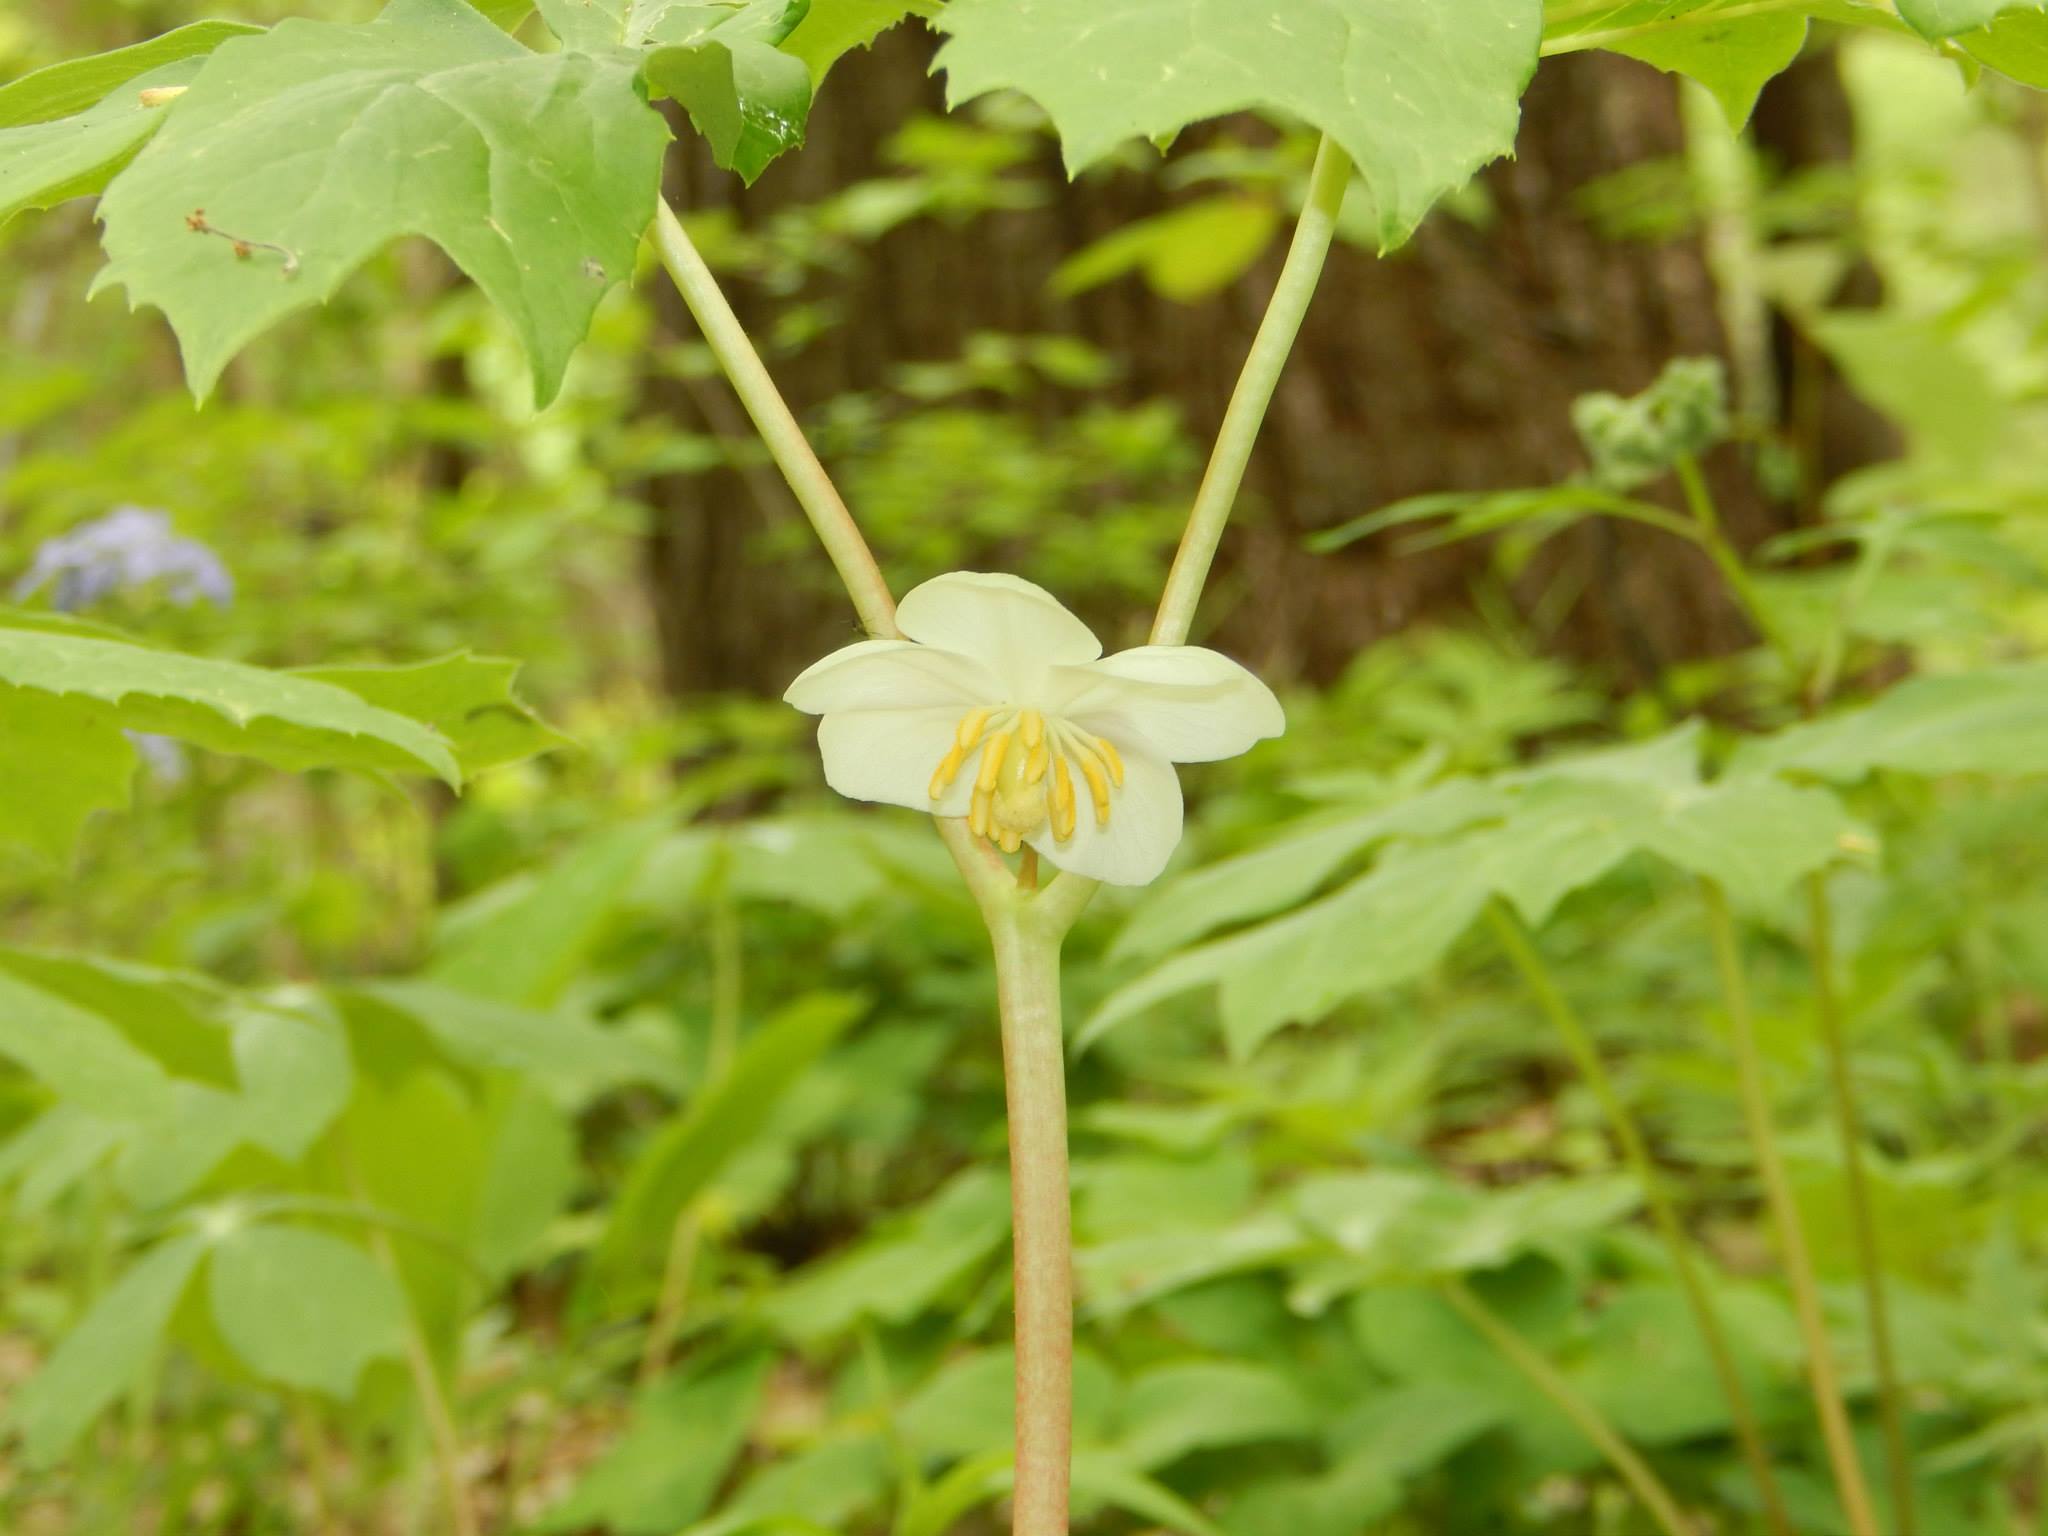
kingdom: Plantae
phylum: Tracheophyta
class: Magnoliopsida
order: Ranunculales
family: Berberidaceae
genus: Podophyllum
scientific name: Podophyllum peltatum
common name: Wild mandrake
